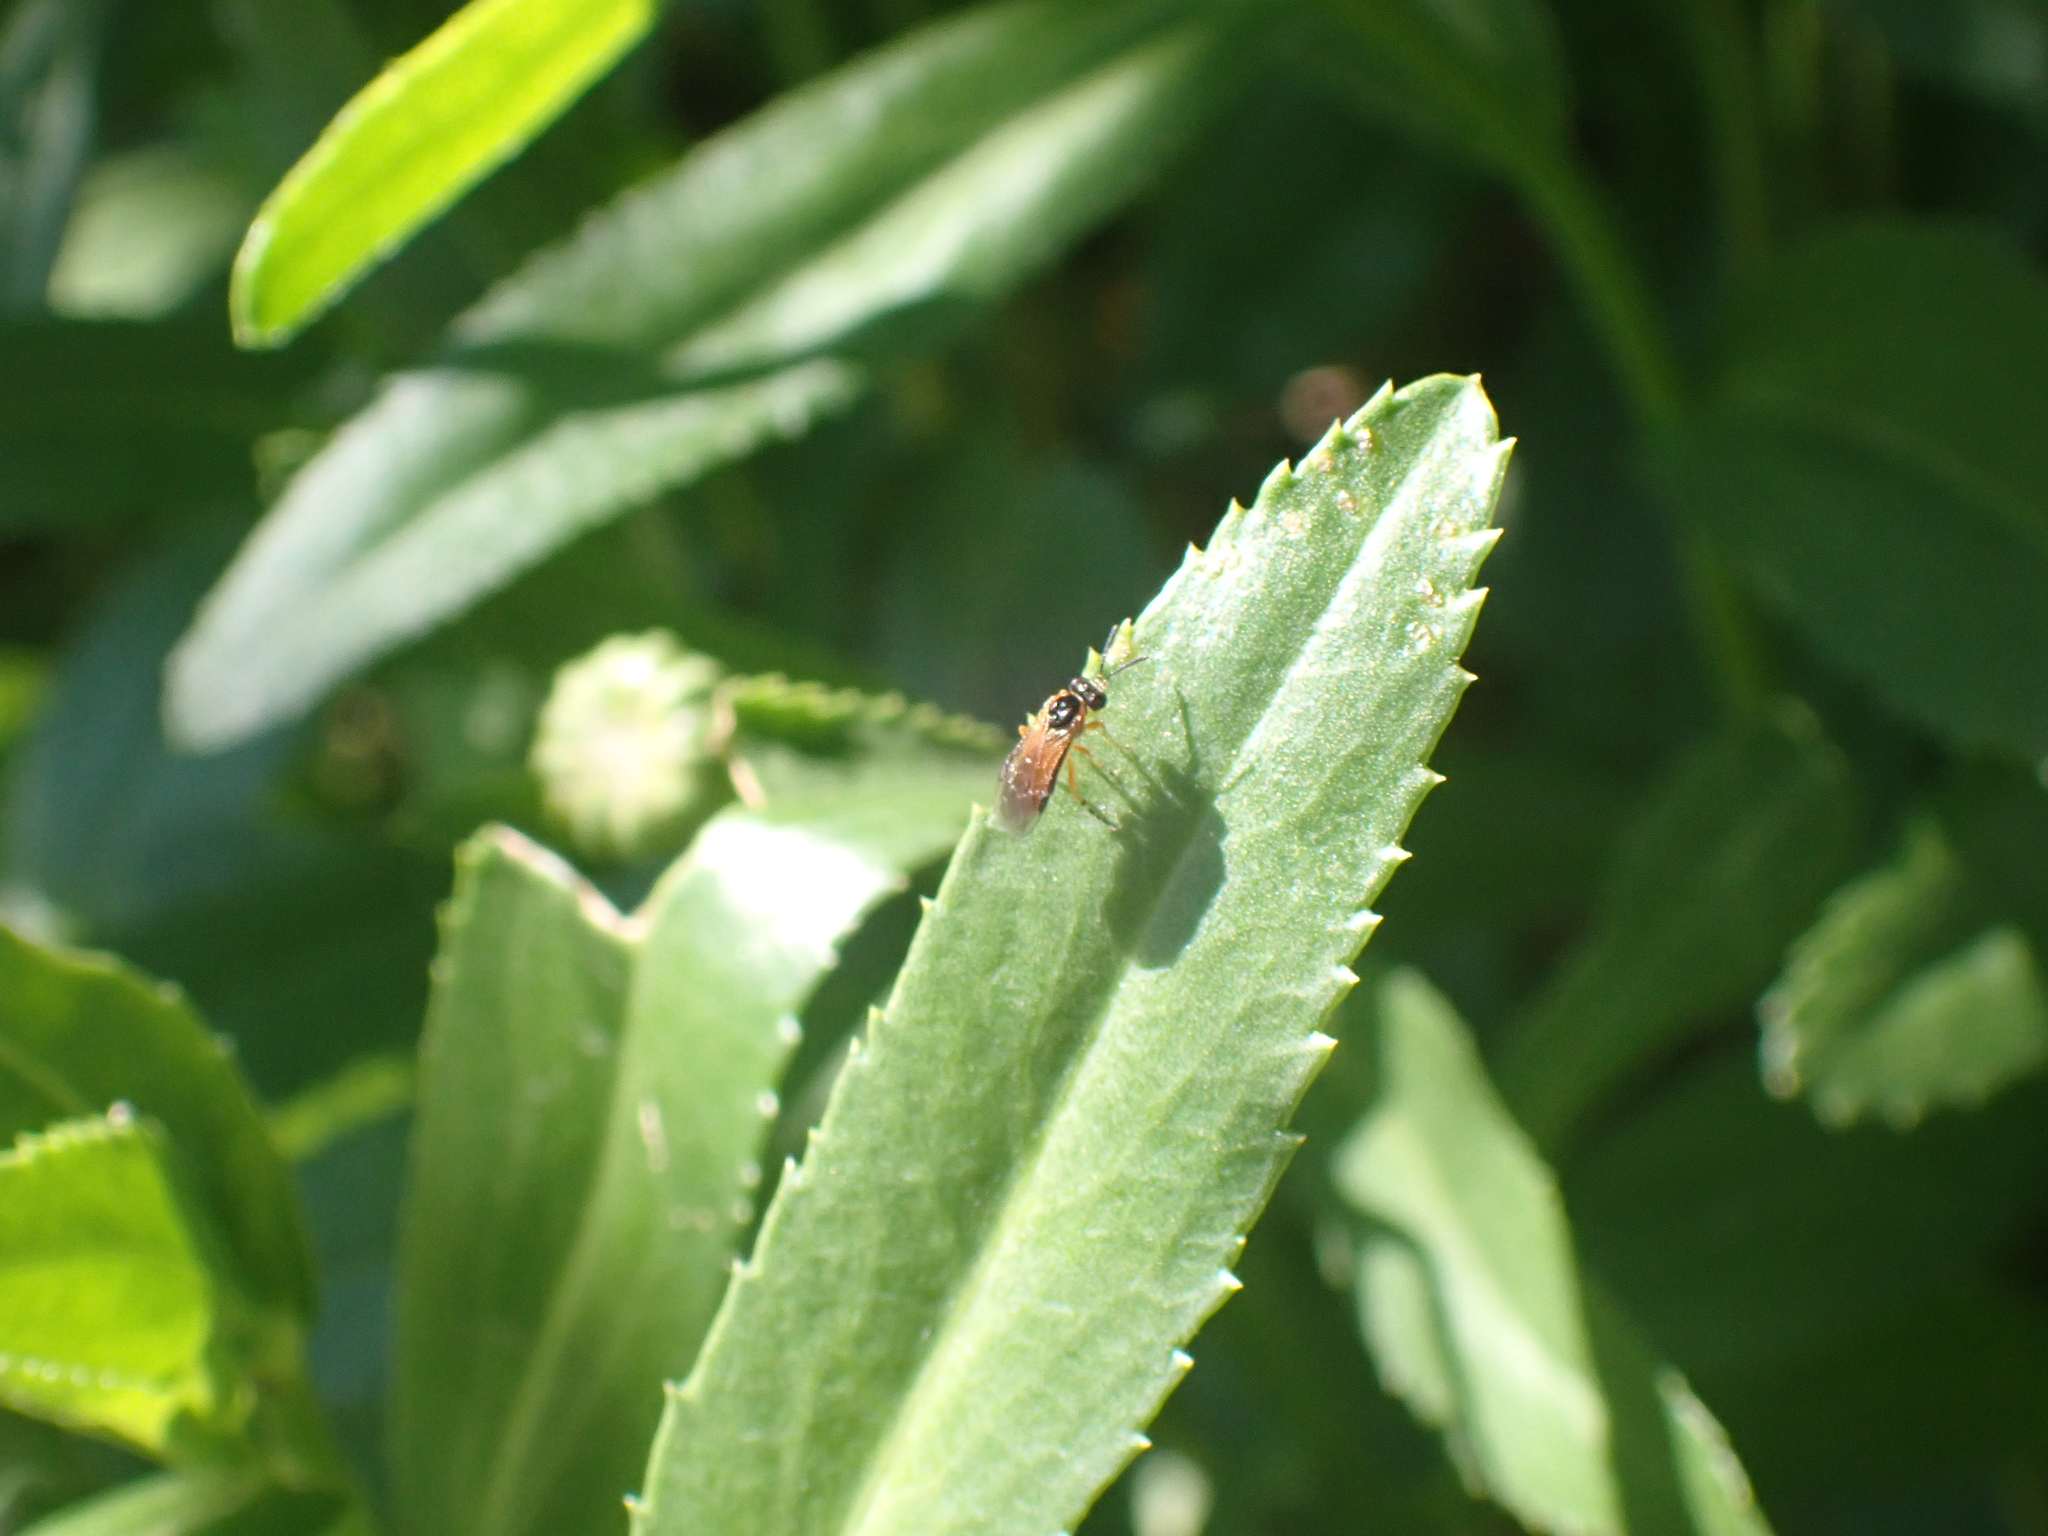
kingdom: Animalia
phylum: Arthropoda
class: Insecta
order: Hymenoptera
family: Tenthredinidae
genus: Athalia
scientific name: Athalia
